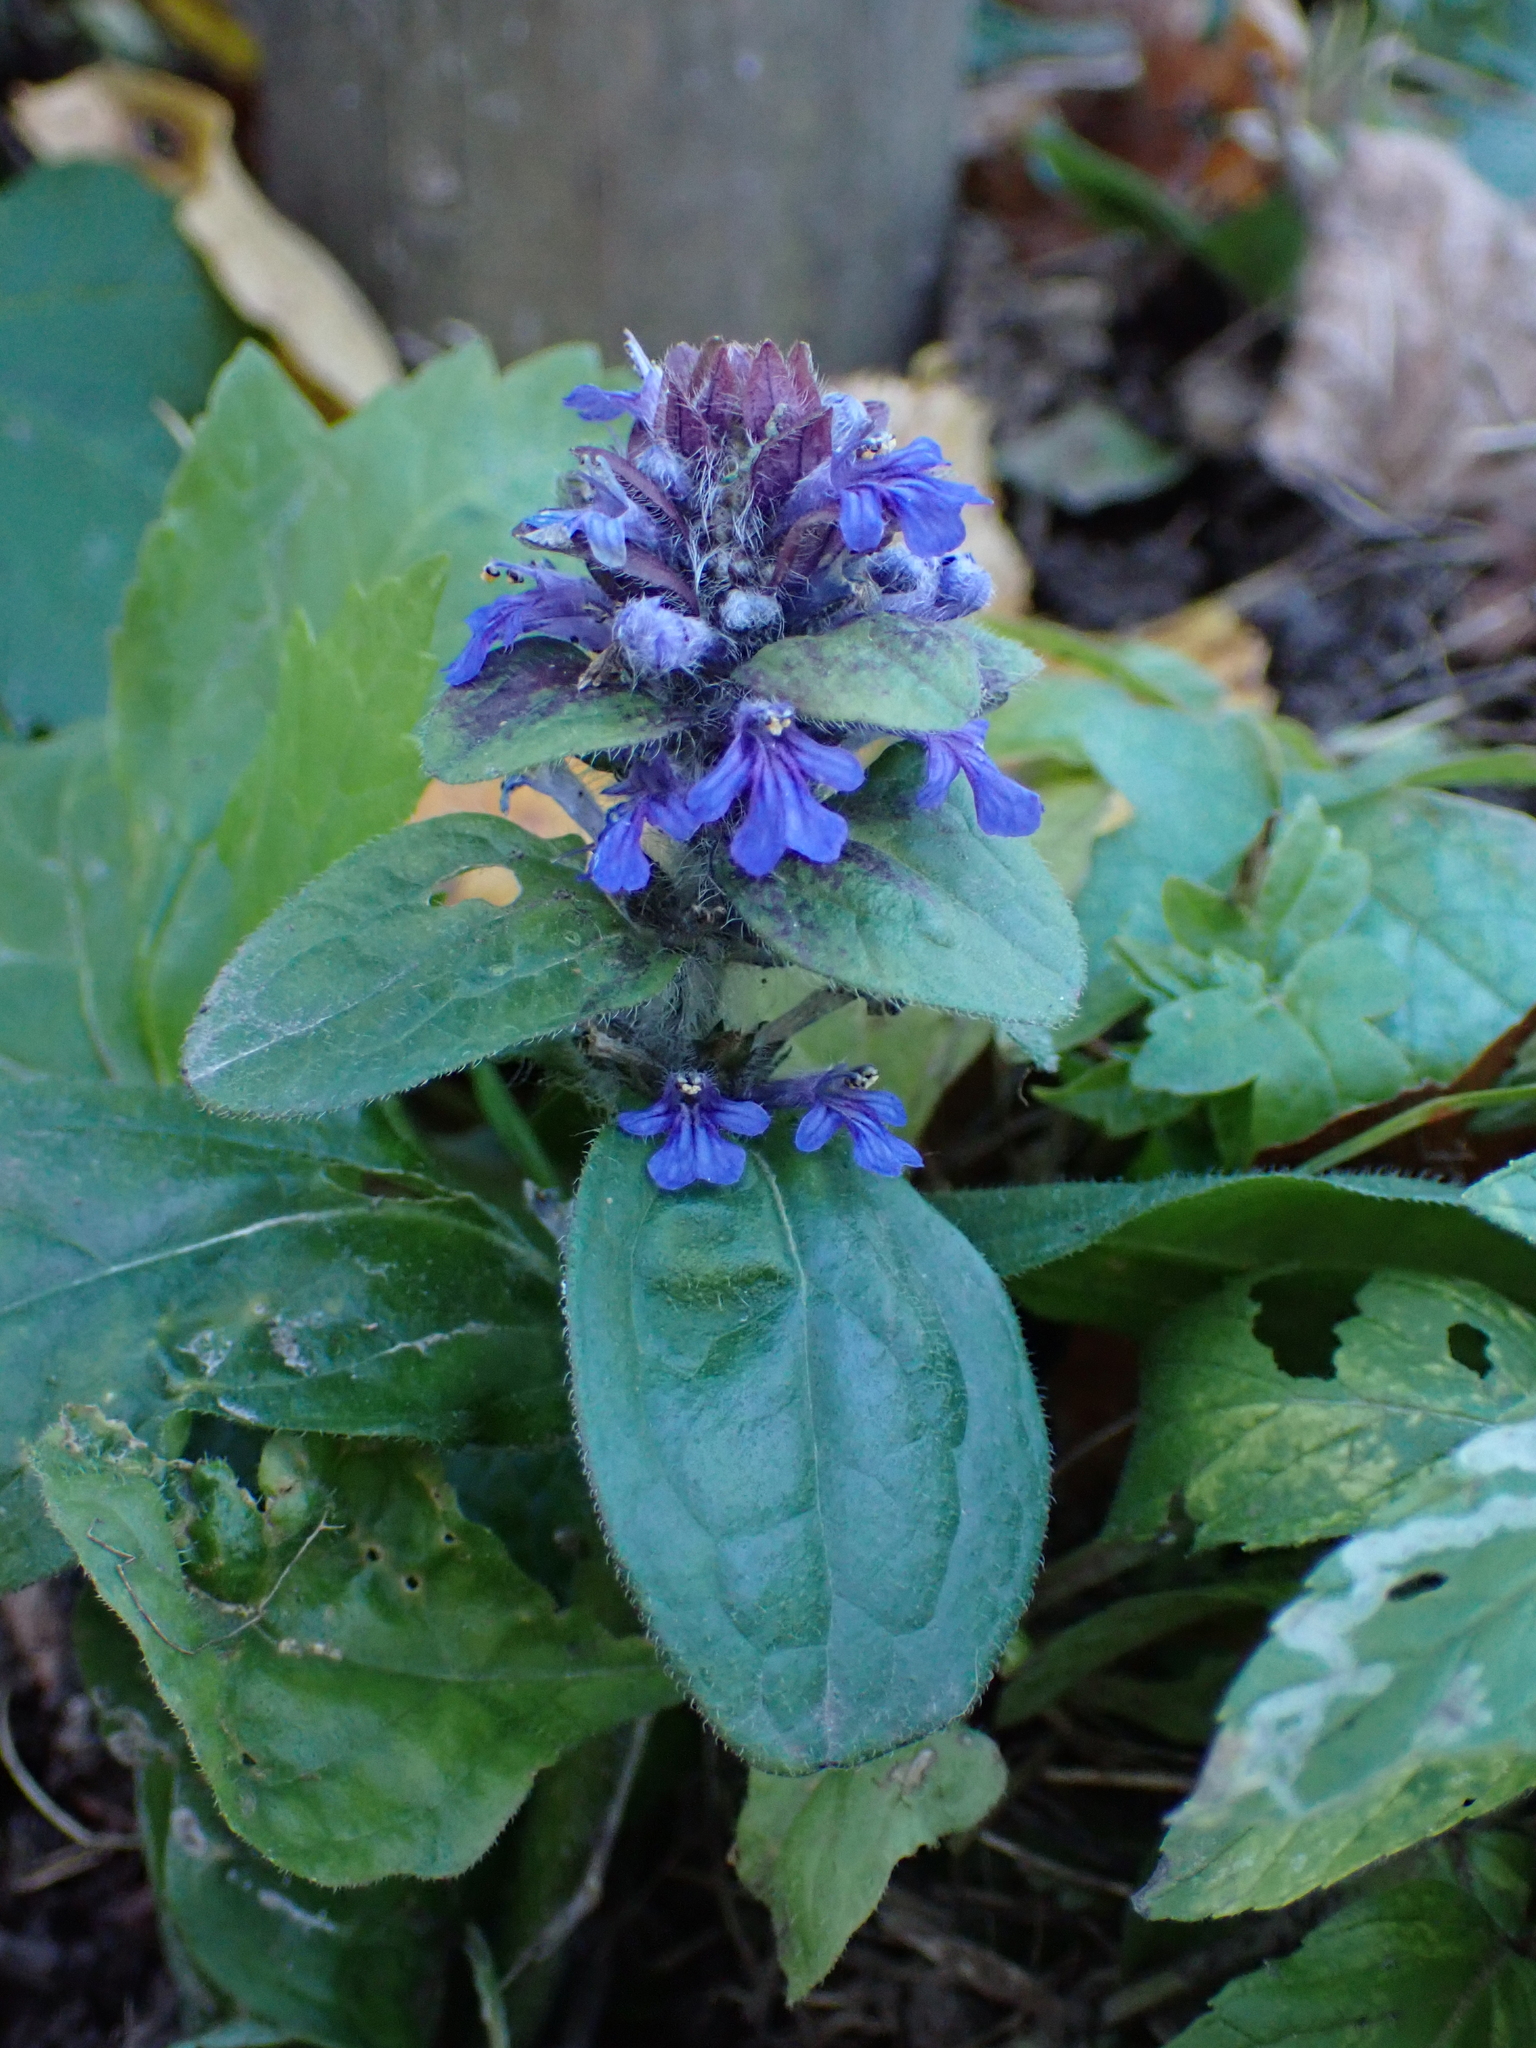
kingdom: Plantae
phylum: Tracheophyta
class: Magnoliopsida
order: Lamiales
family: Lamiaceae
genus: Ajuga
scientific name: Ajuga reptans
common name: Bugle
